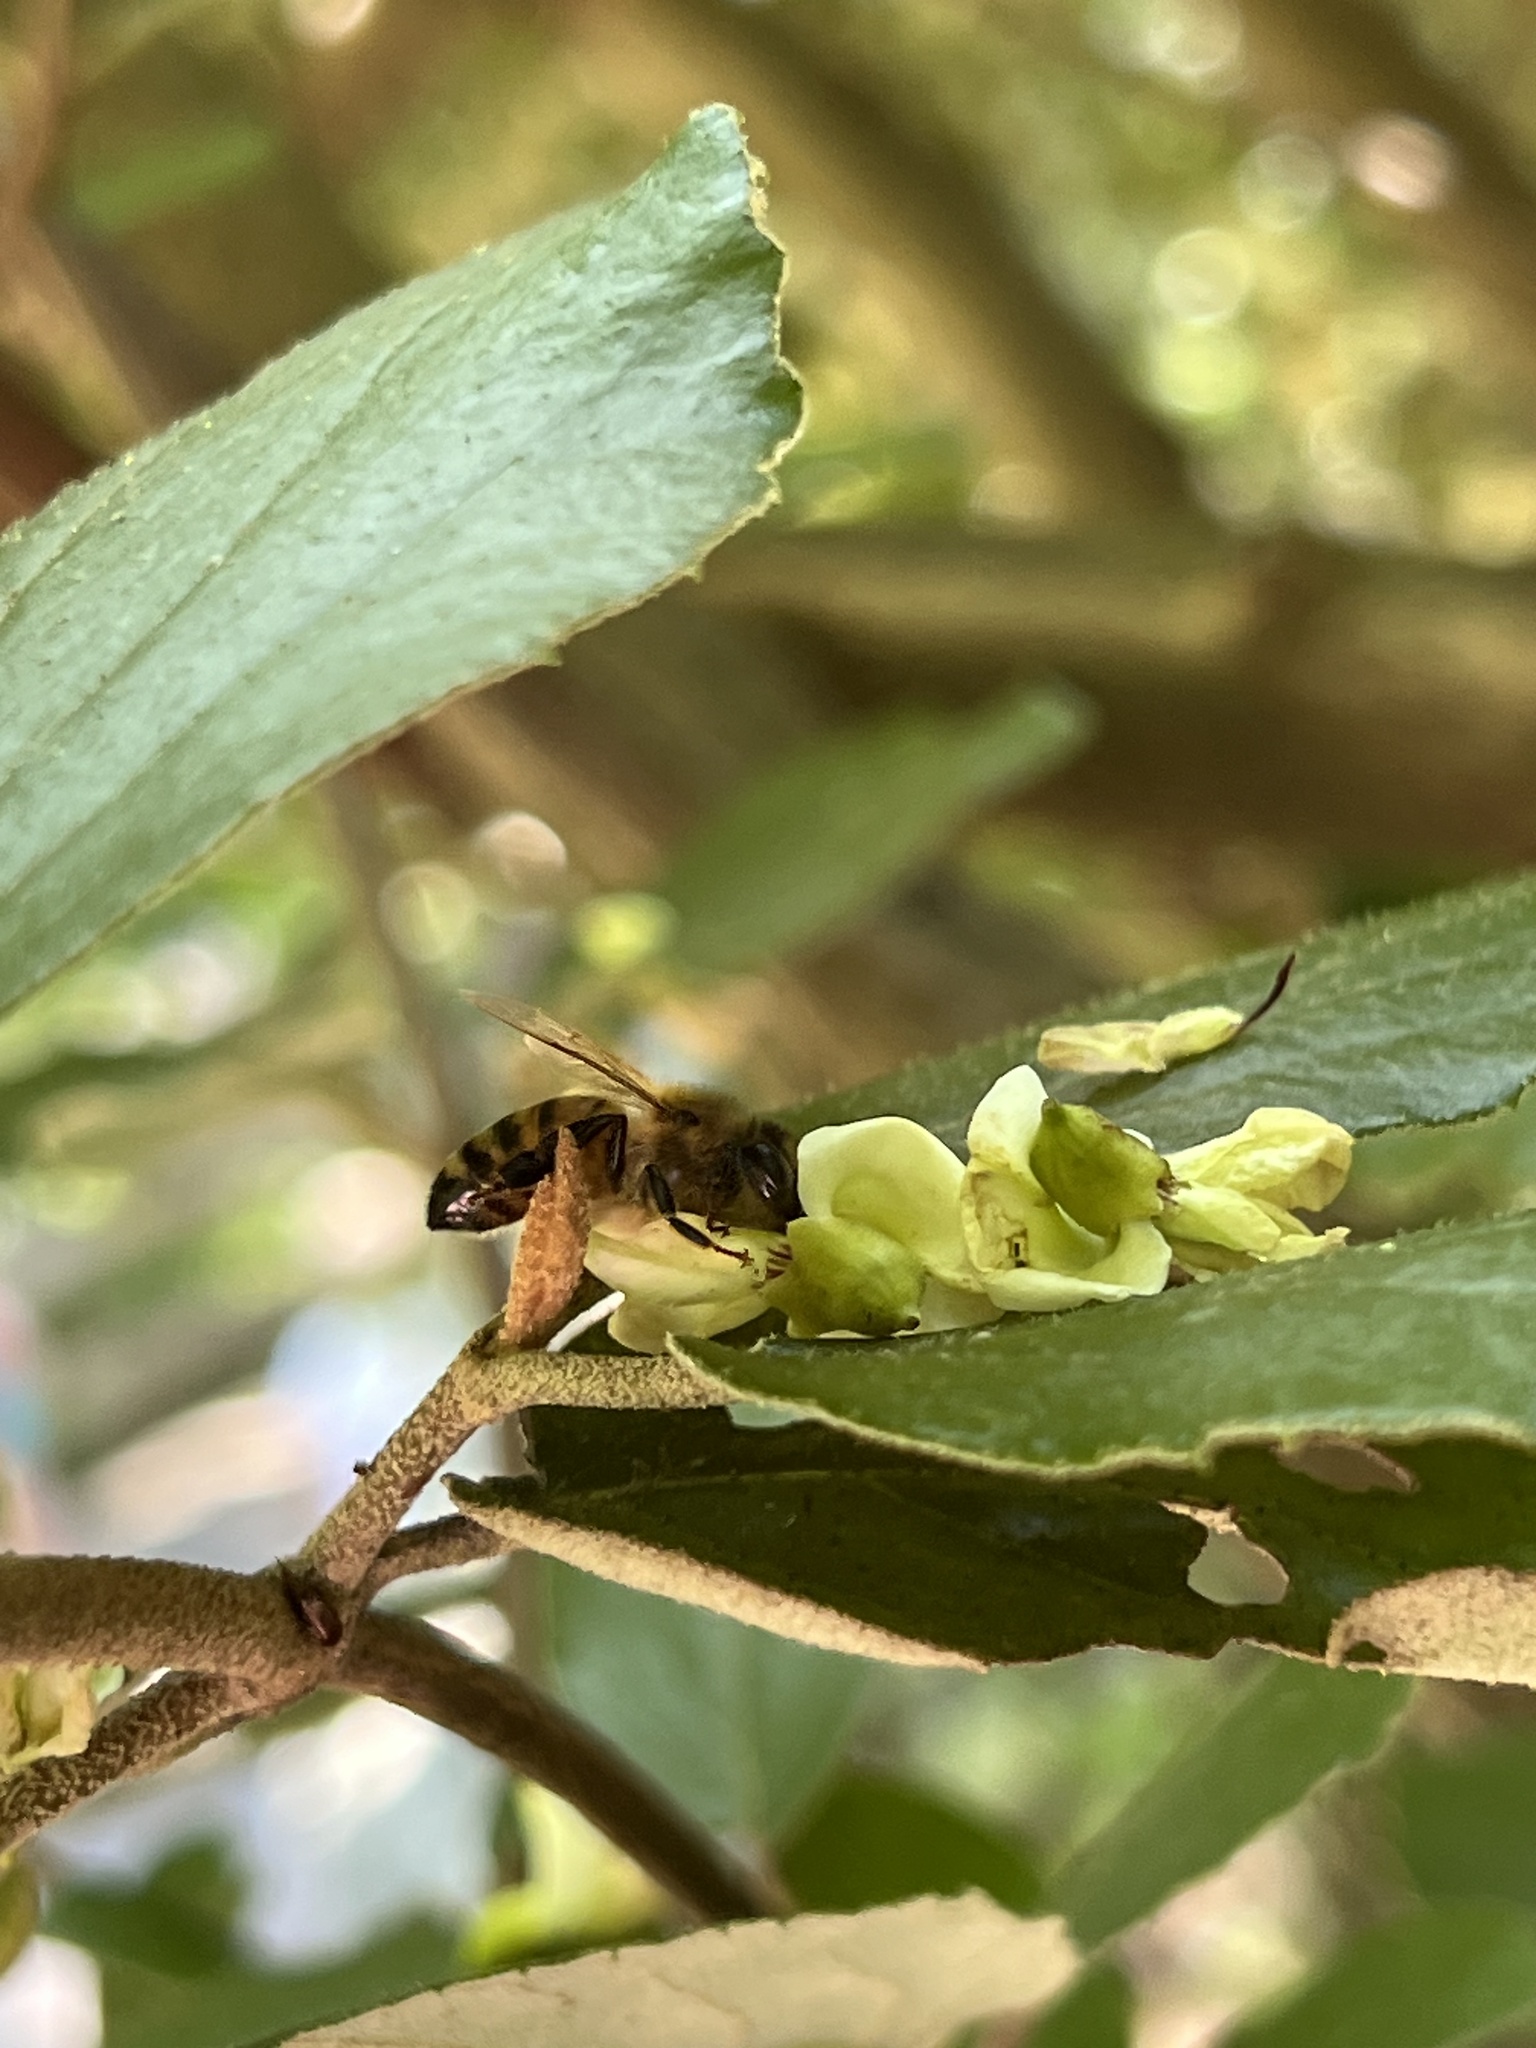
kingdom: Animalia
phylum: Arthropoda
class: Insecta
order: Hymenoptera
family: Apidae
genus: Apis
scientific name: Apis mellifera
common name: Honey bee
